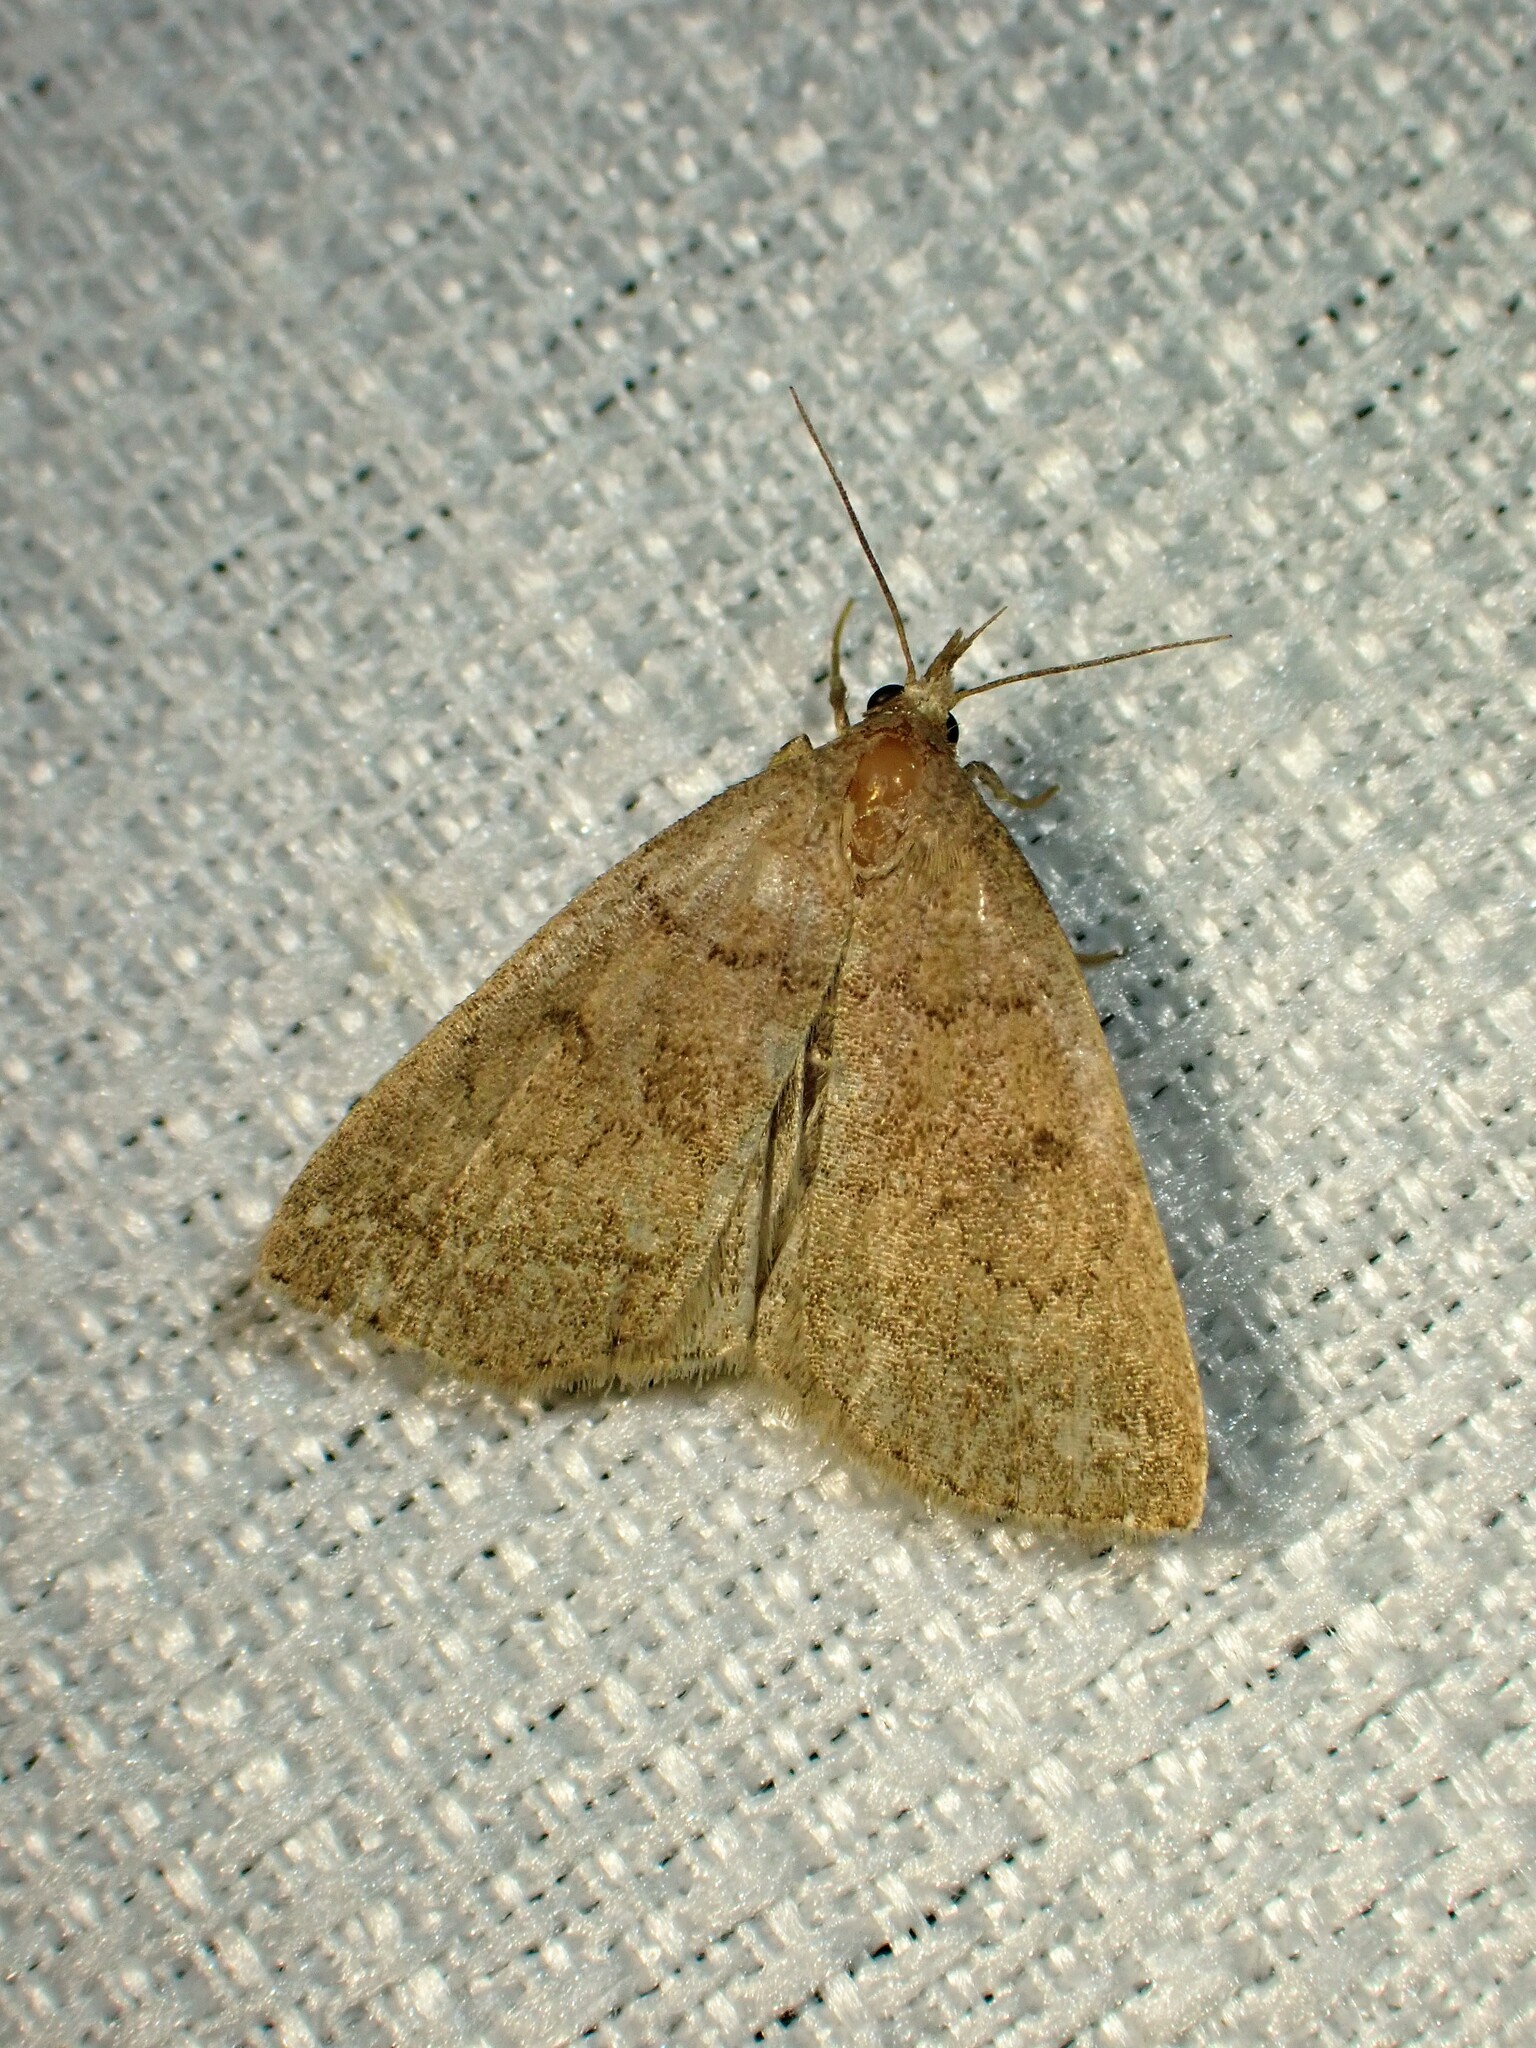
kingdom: Animalia
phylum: Arthropoda
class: Insecta
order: Lepidoptera
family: Erebidae
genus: Zanclognatha
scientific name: Zanclognatha jacchusalis
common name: Yellowish zanclognatha
